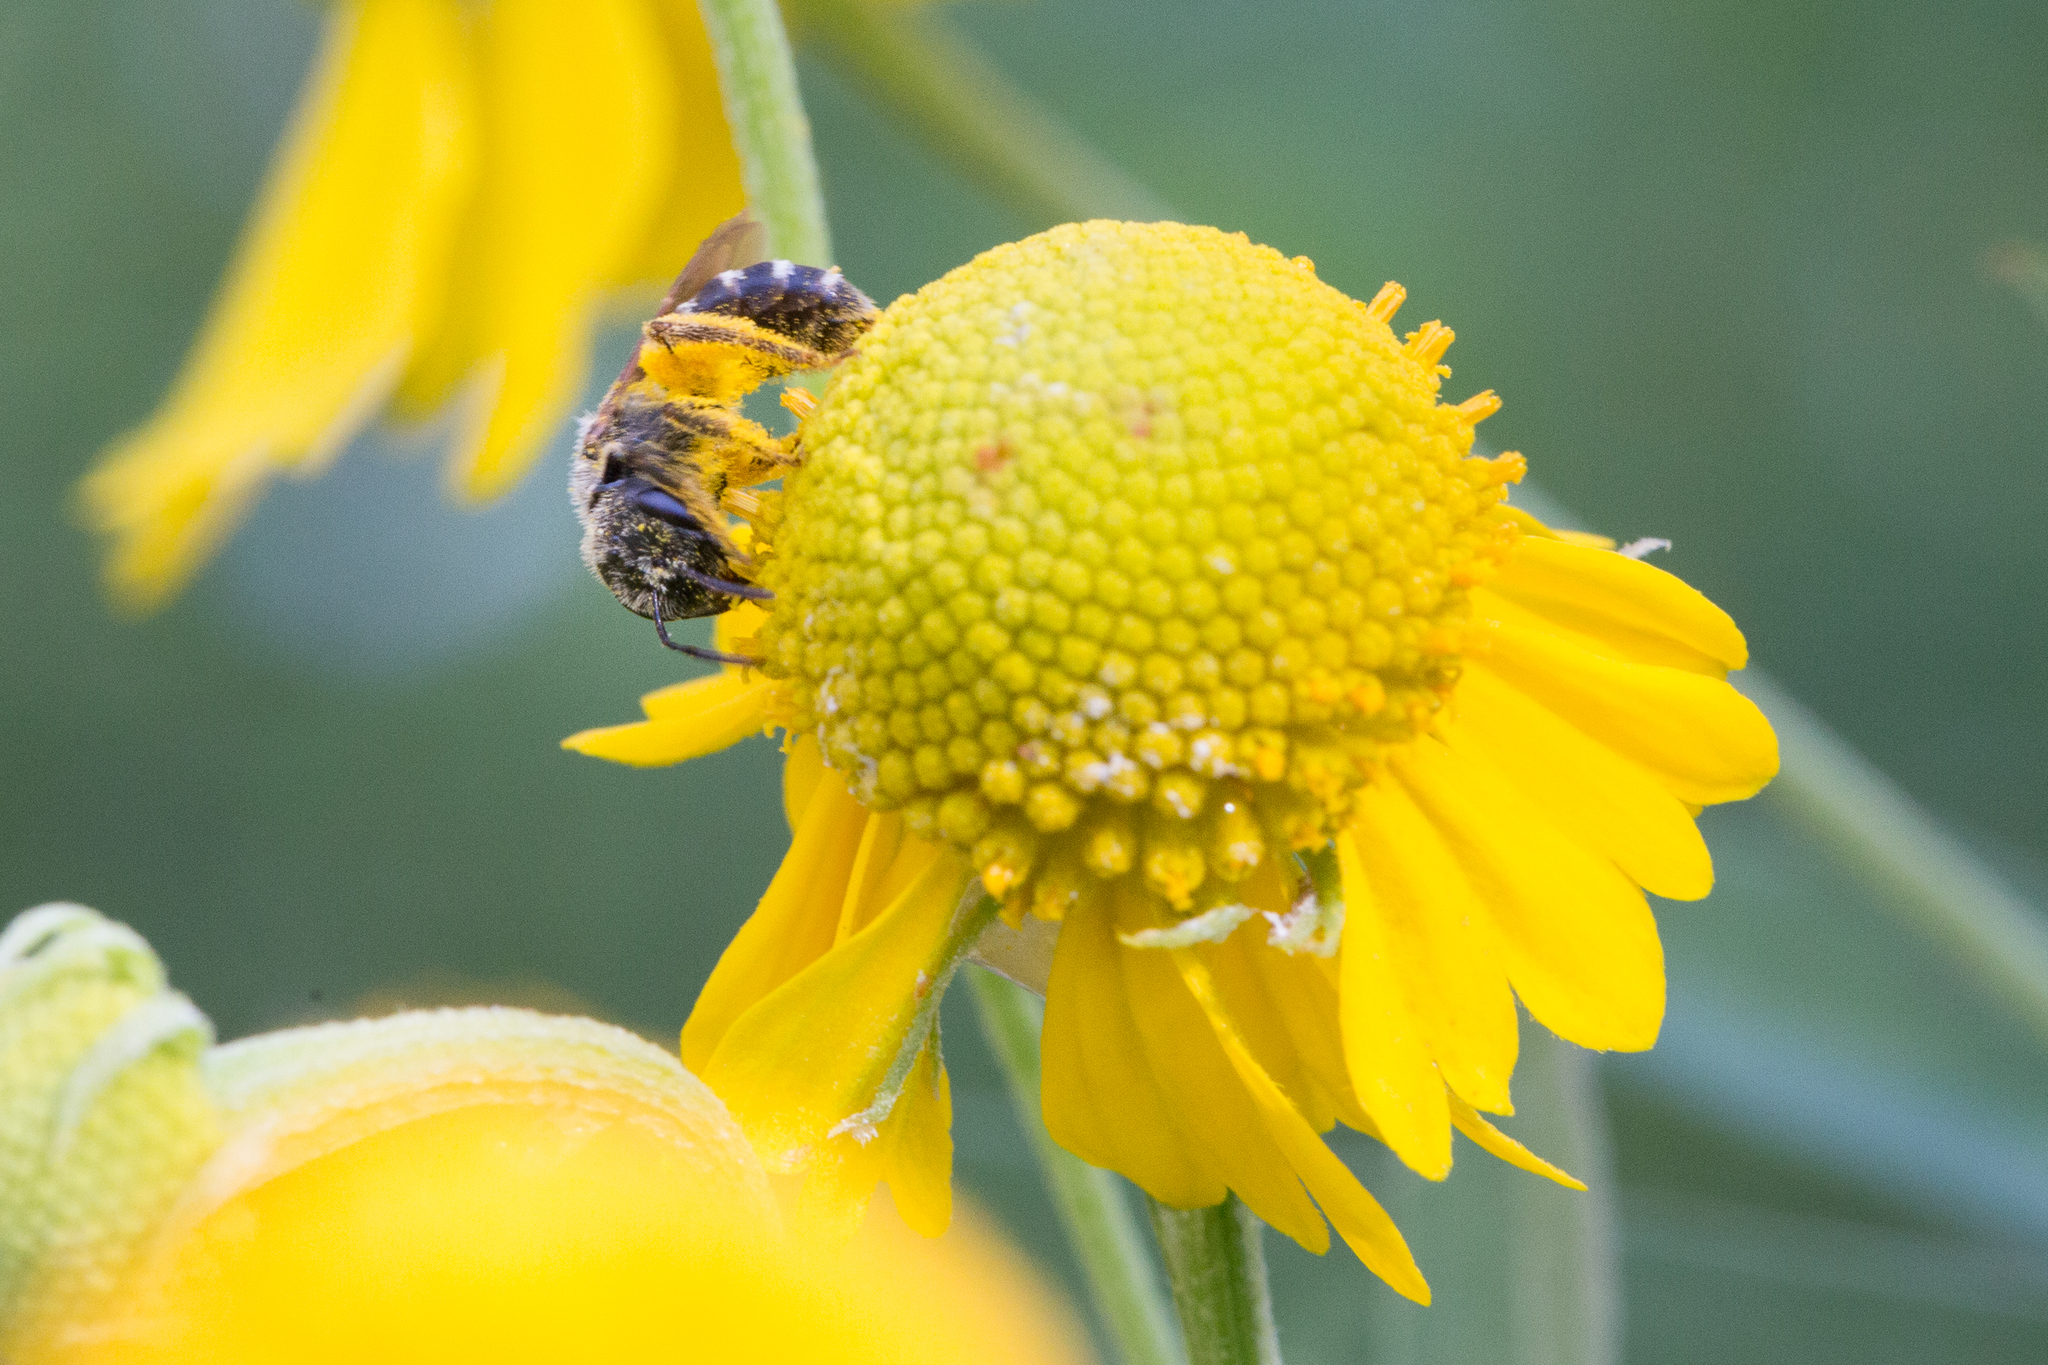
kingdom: Animalia
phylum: Arthropoda
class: Insecta
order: Hymenoptera
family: Halictidae
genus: Halictus
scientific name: Halictus ligatus
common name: Ligated furrow bee
